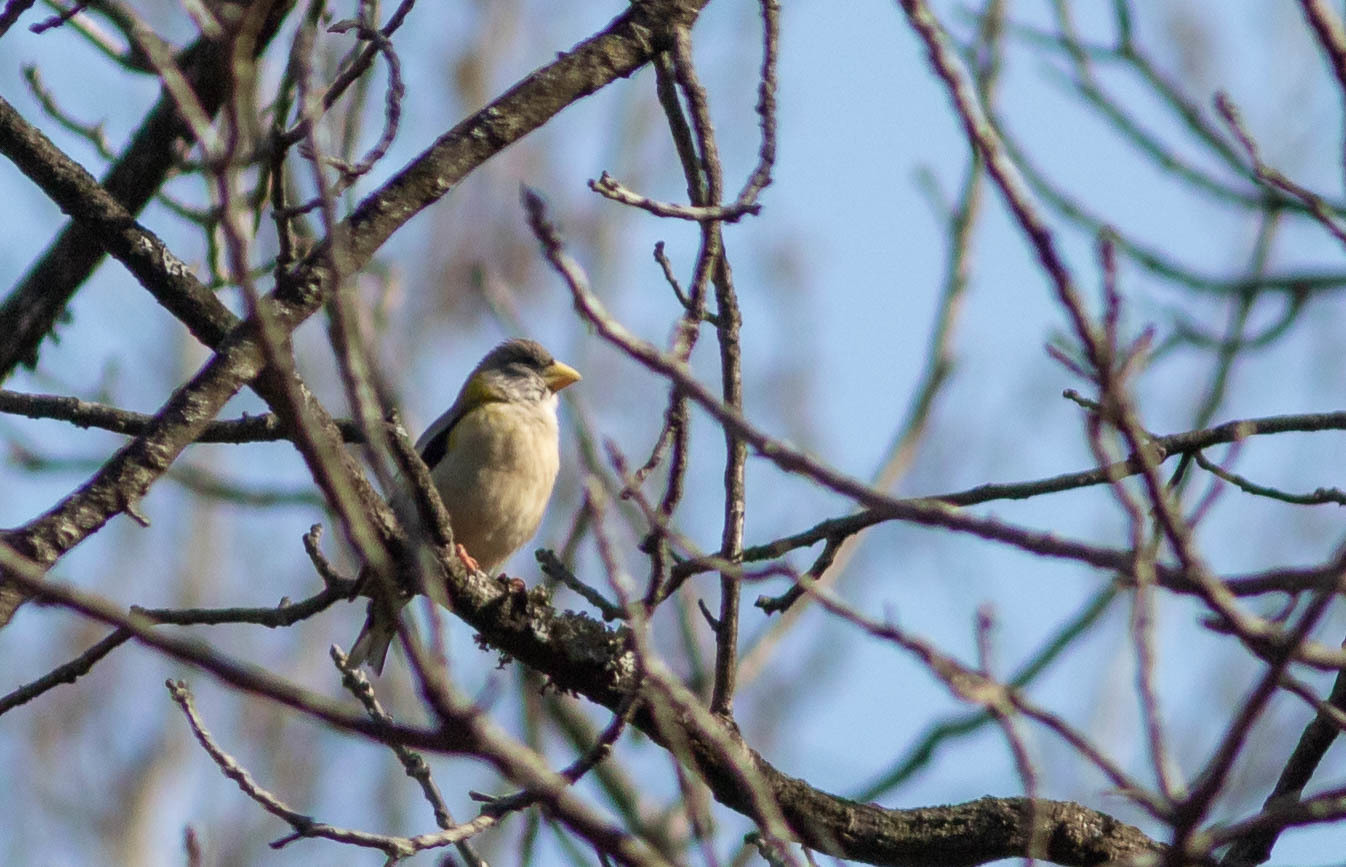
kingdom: Animalia
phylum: Chordata
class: Aves
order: Passeriformes
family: Fringillidae
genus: Hesperiphona
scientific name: Hesperiphona vespertina
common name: Evening grosbeak
